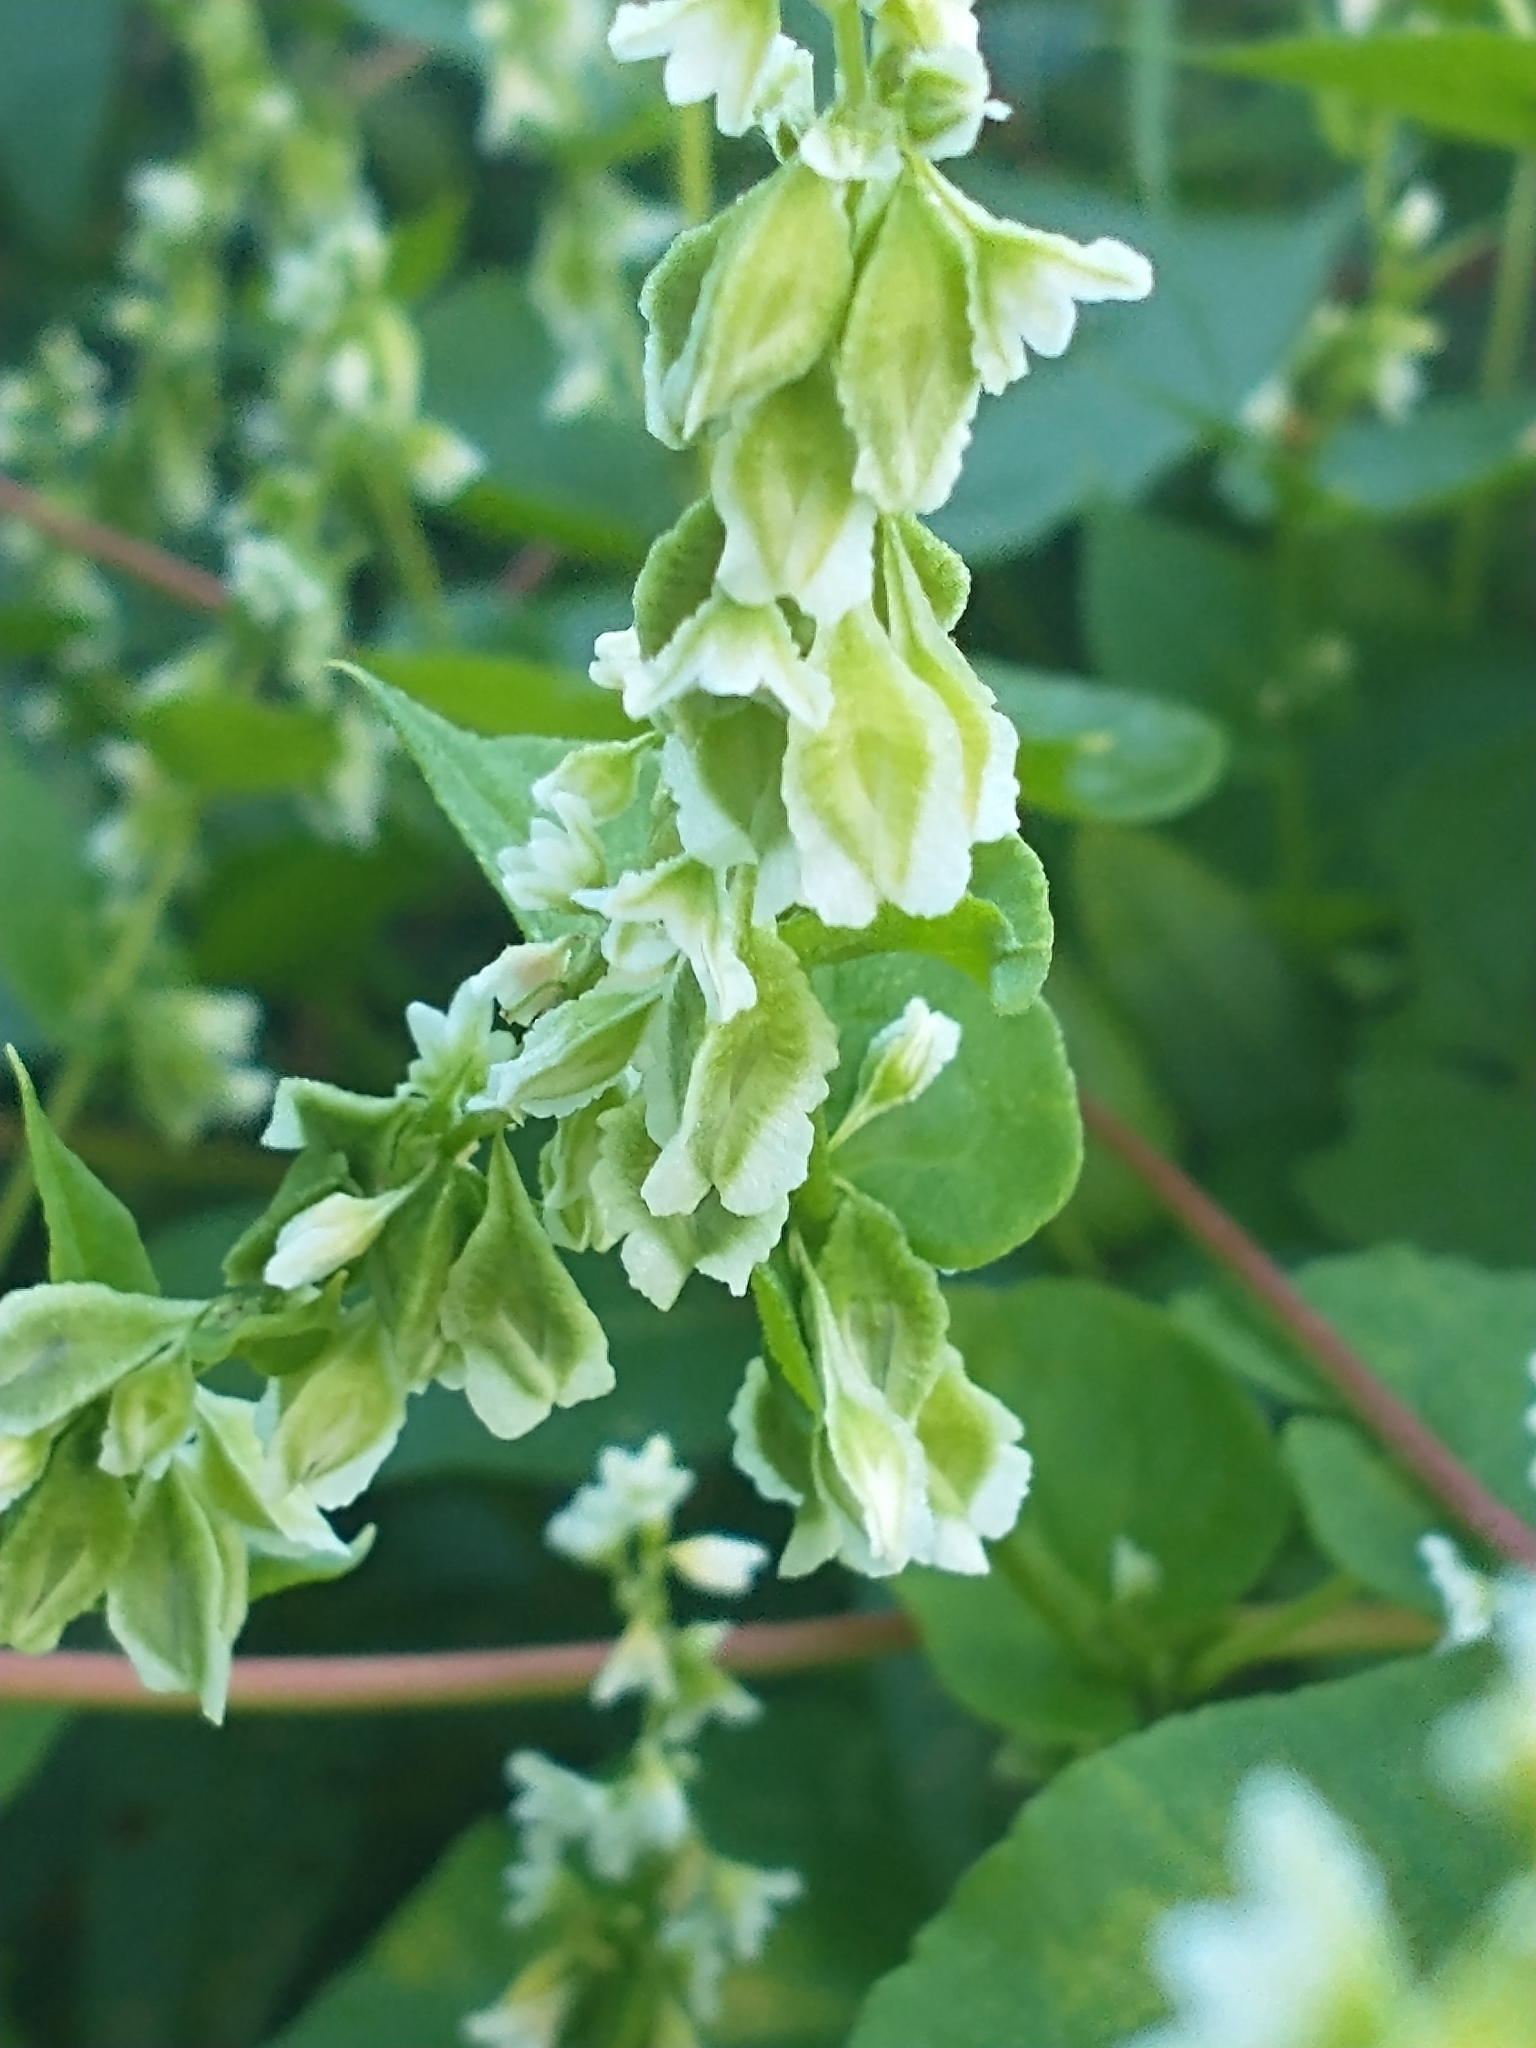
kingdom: Plantae
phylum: Tracheophyta
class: Magnoliopsida
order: Caryophyllales
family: Polygonaceae
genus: Fallopia
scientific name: Fallopia scandens
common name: Climbing false buckwheat
